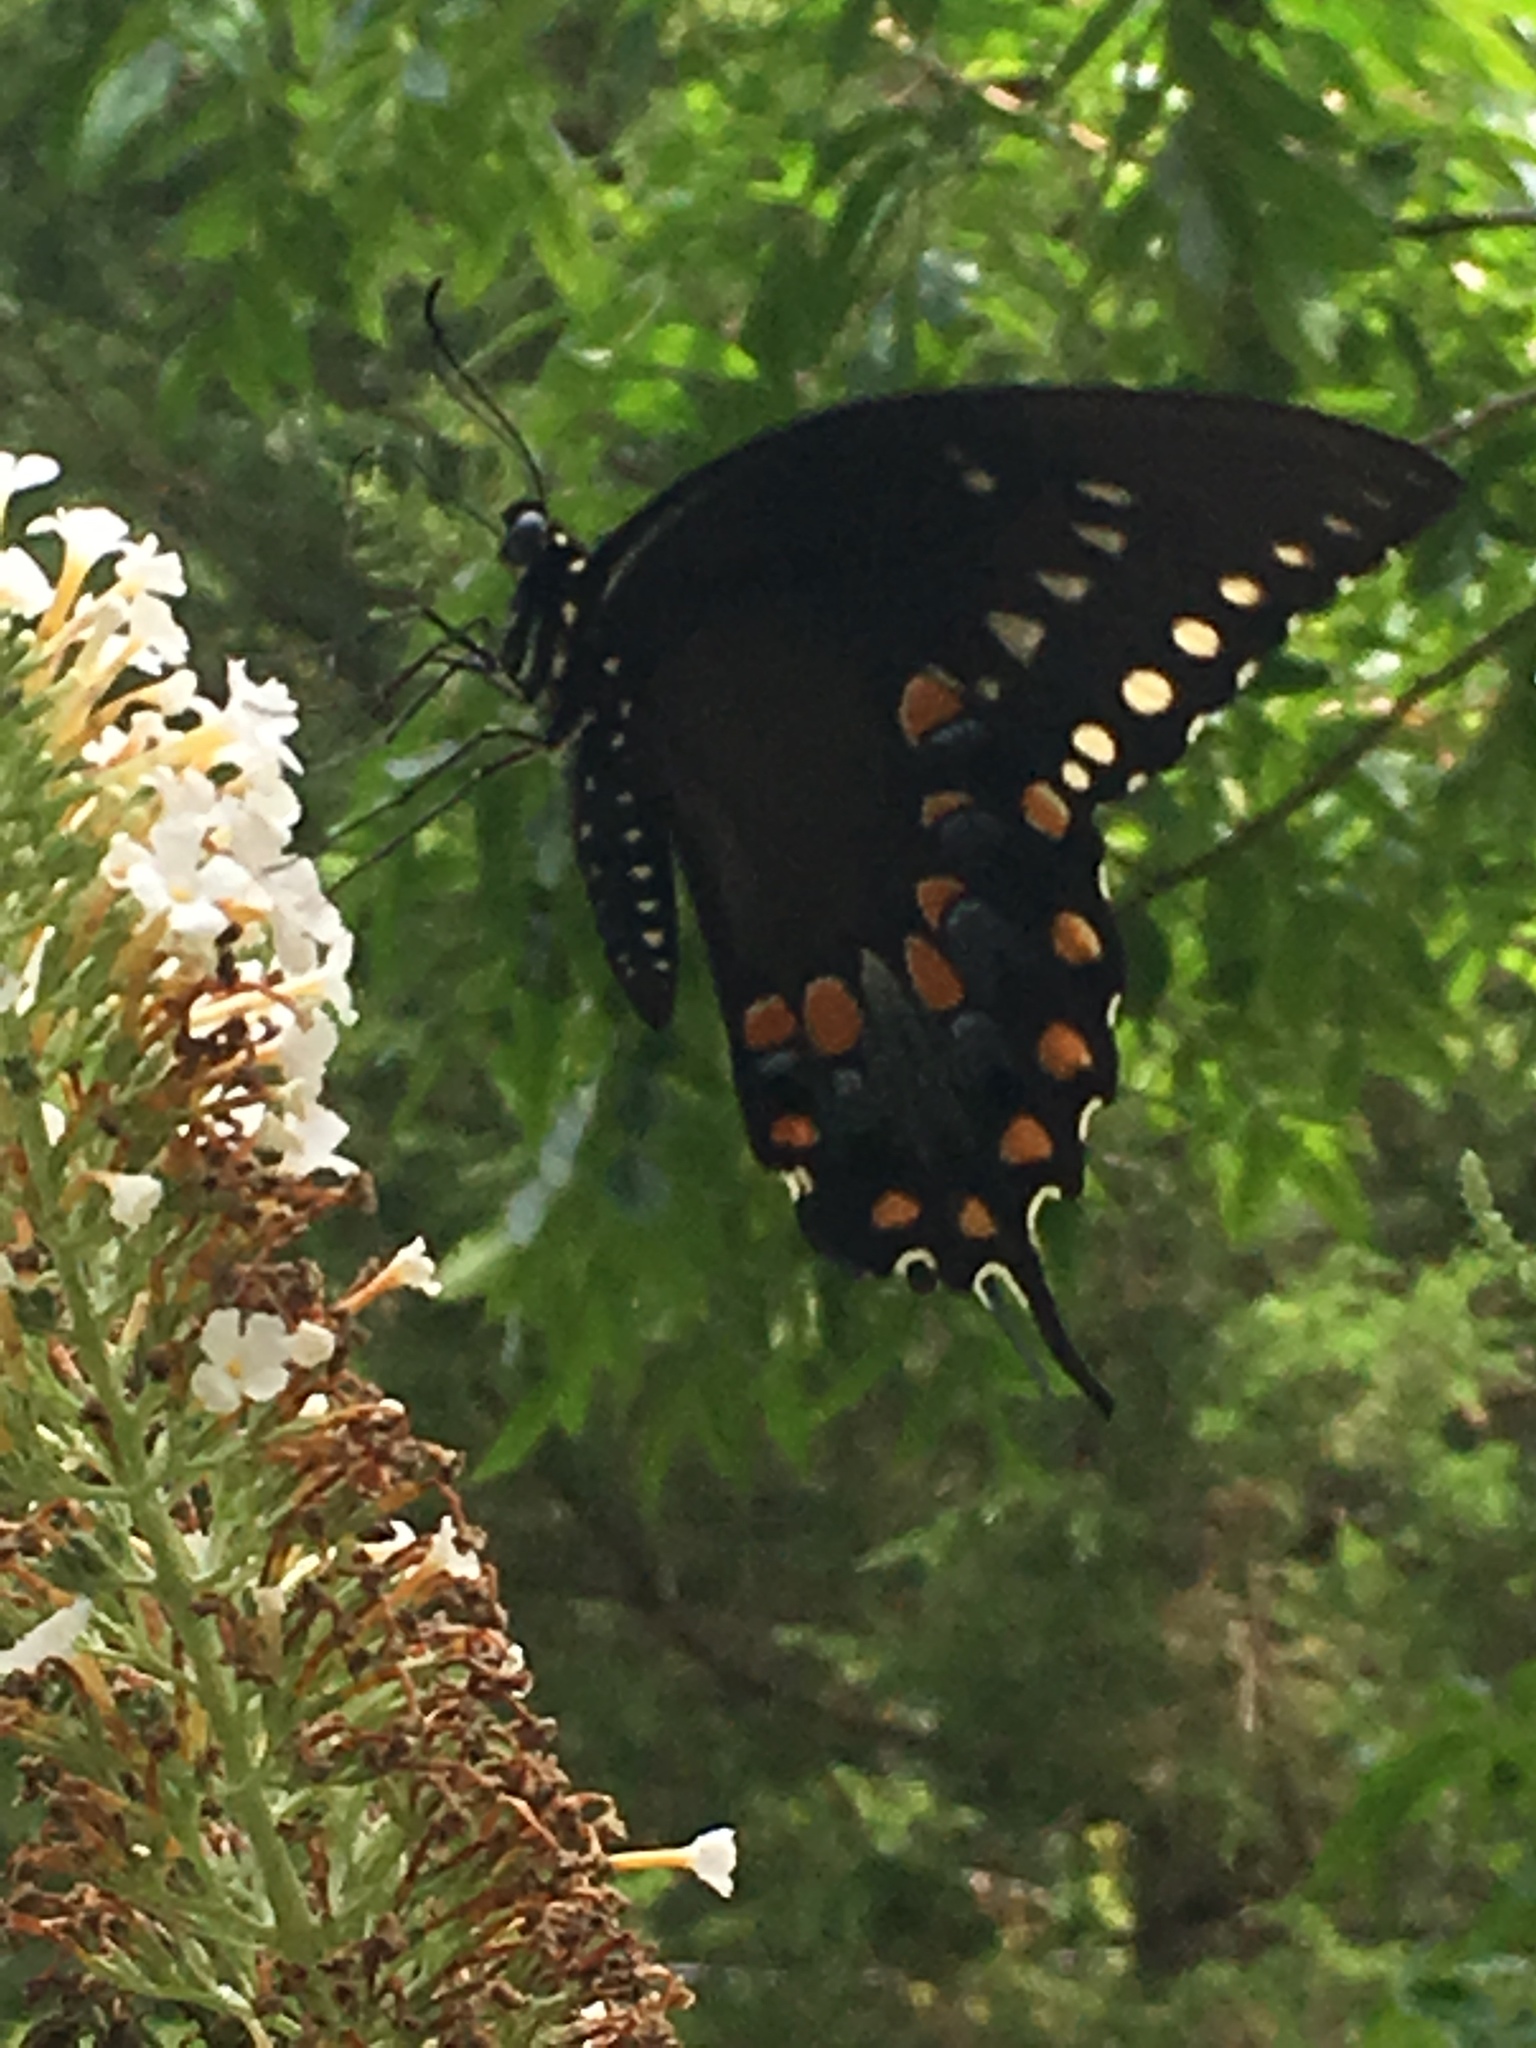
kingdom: Animalia
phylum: Arthropoda
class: Insecta
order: Lepidoptera
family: Papilionidae
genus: Papilio
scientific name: Papilio troilus
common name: Spicebush swallowtail
